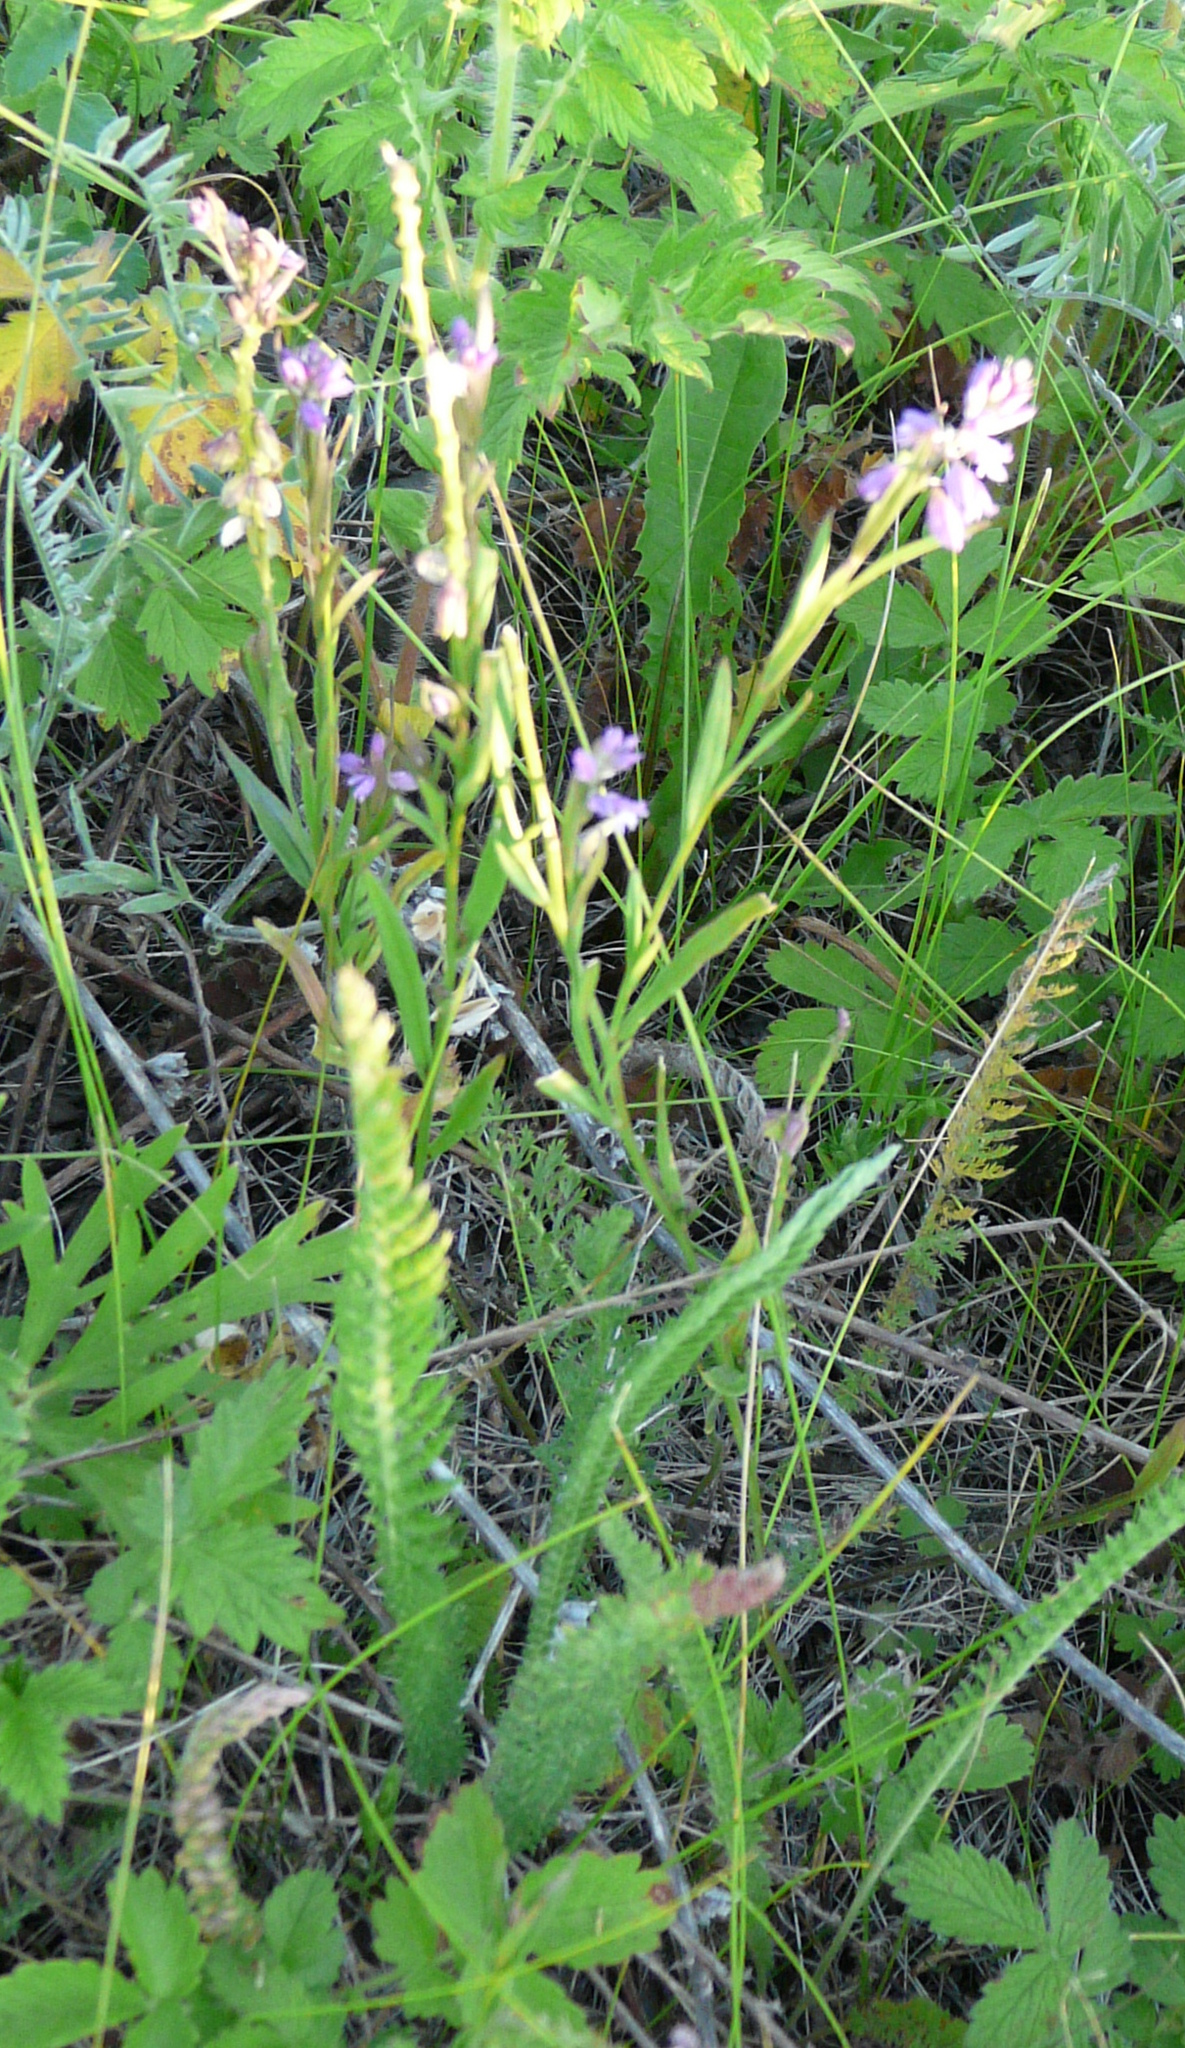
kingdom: Plantae
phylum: Tracheophyta
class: Magnoliopsida
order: Fabales
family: Polygalaceae
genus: Polygala
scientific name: Polygala comosa
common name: Tufted milkwort
